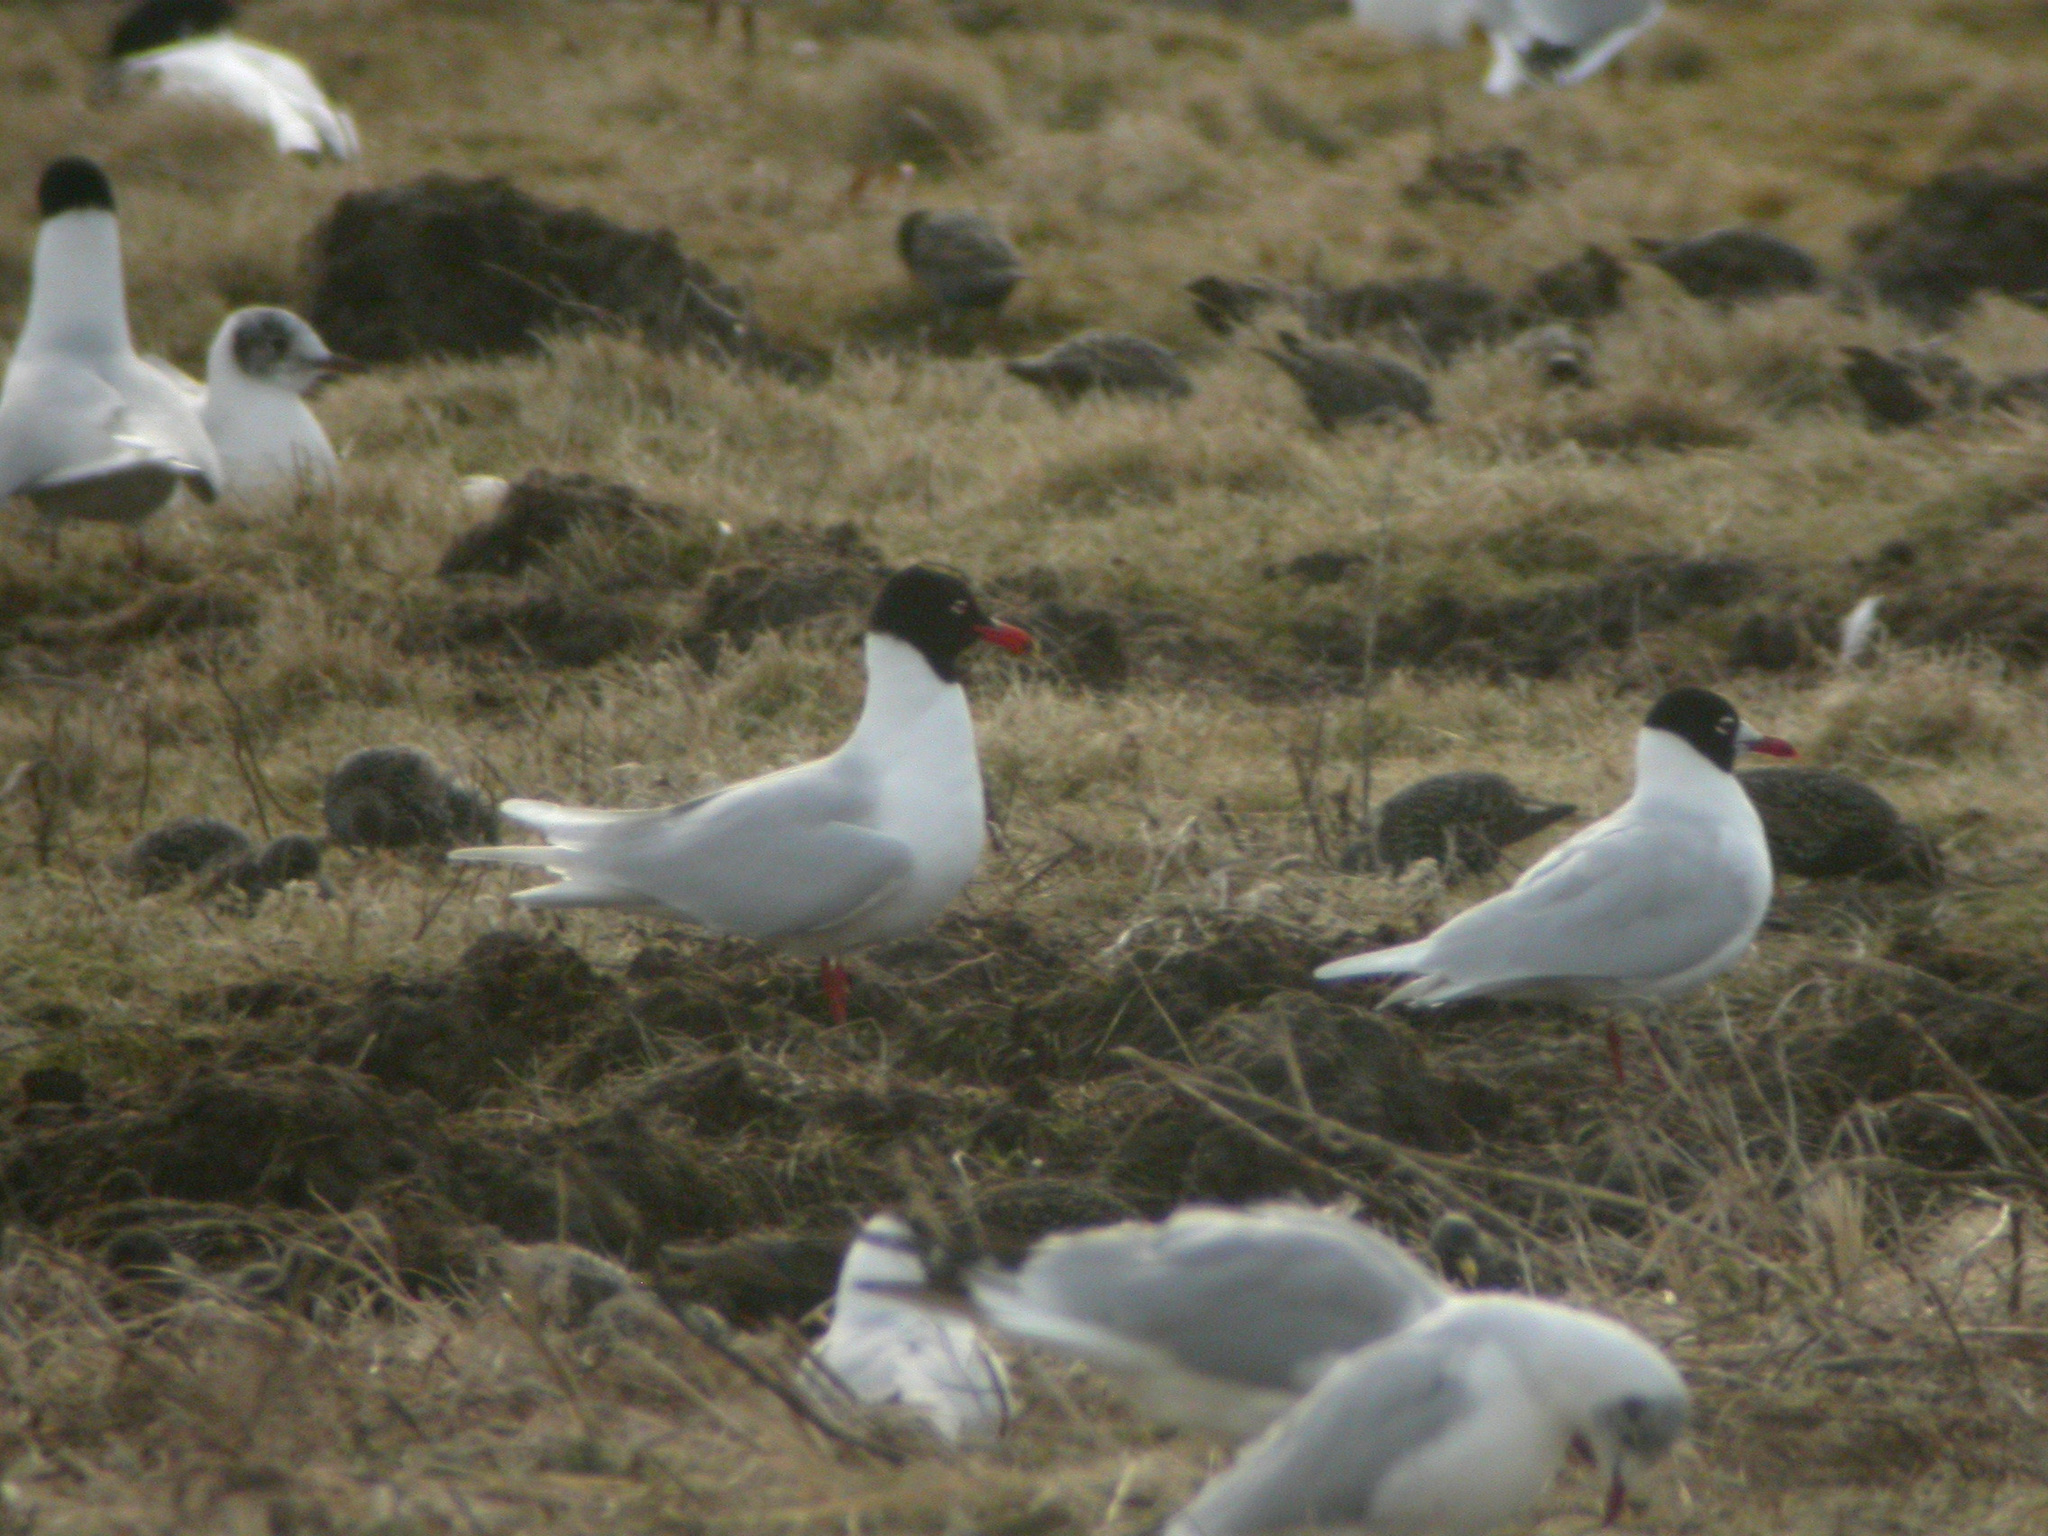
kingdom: Animalia
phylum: Chordata
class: Aves
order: Charadriiformes
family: Laridae
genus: Ichthyaetus
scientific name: Ichthyaetus melanocephalus
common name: Mediterranean gull
